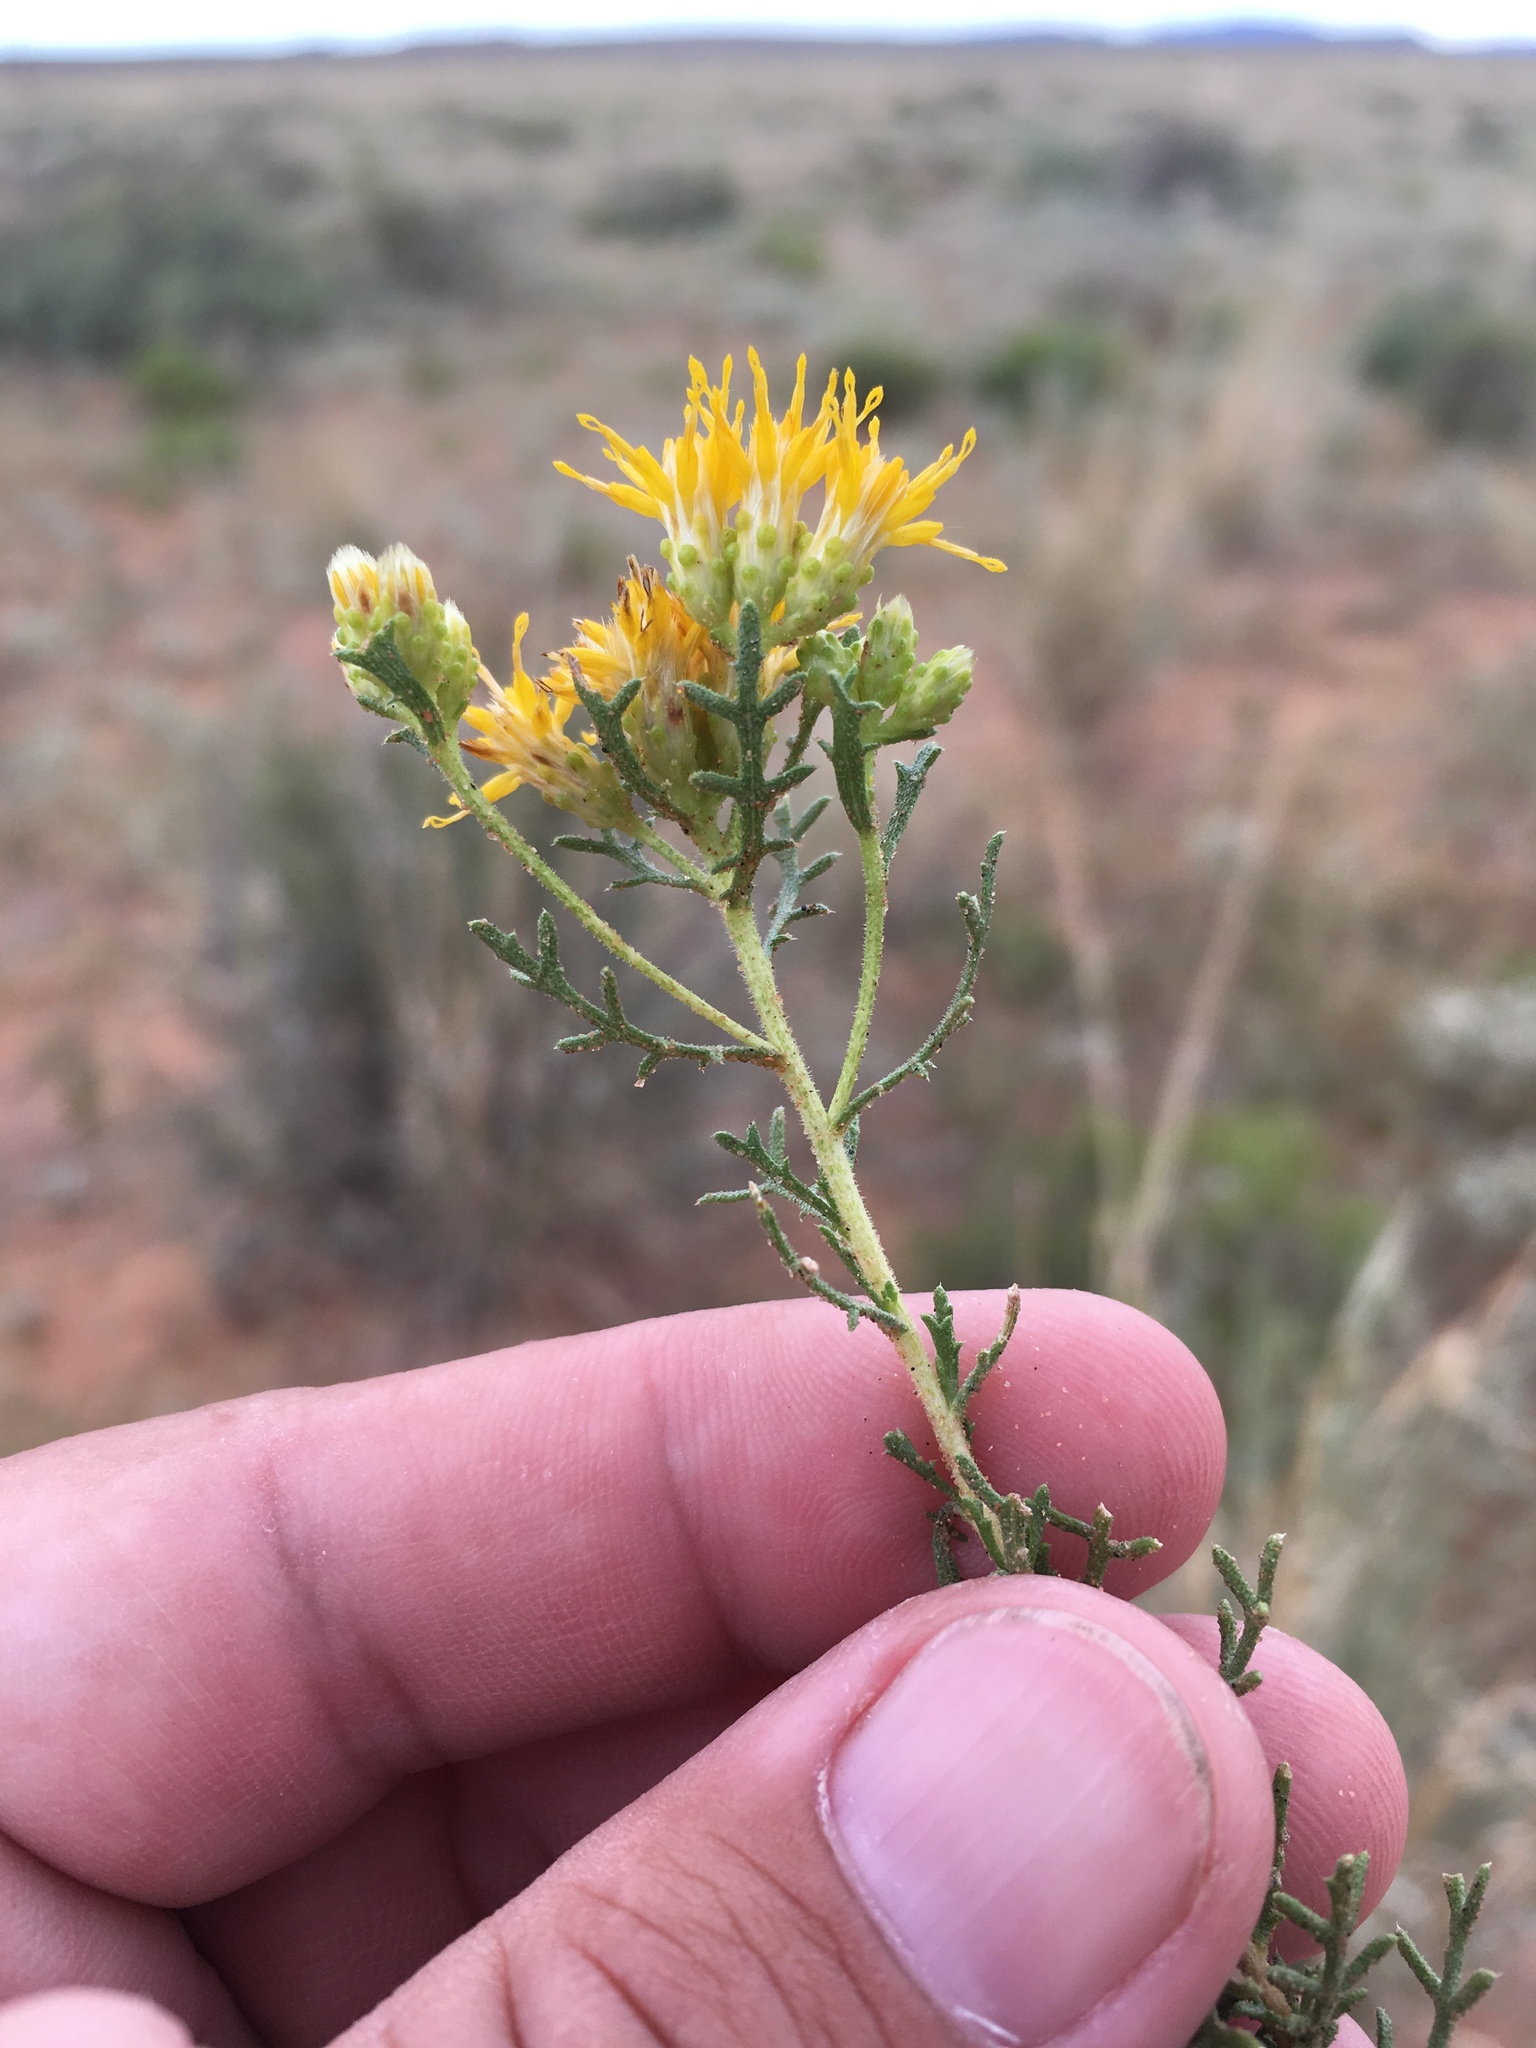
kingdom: Plantae
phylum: Tracheophyta
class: Magnoliopsida
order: Asterales
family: Asteraceae
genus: Isocoma
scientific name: Isocoma tenuisecta
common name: Burroweed
